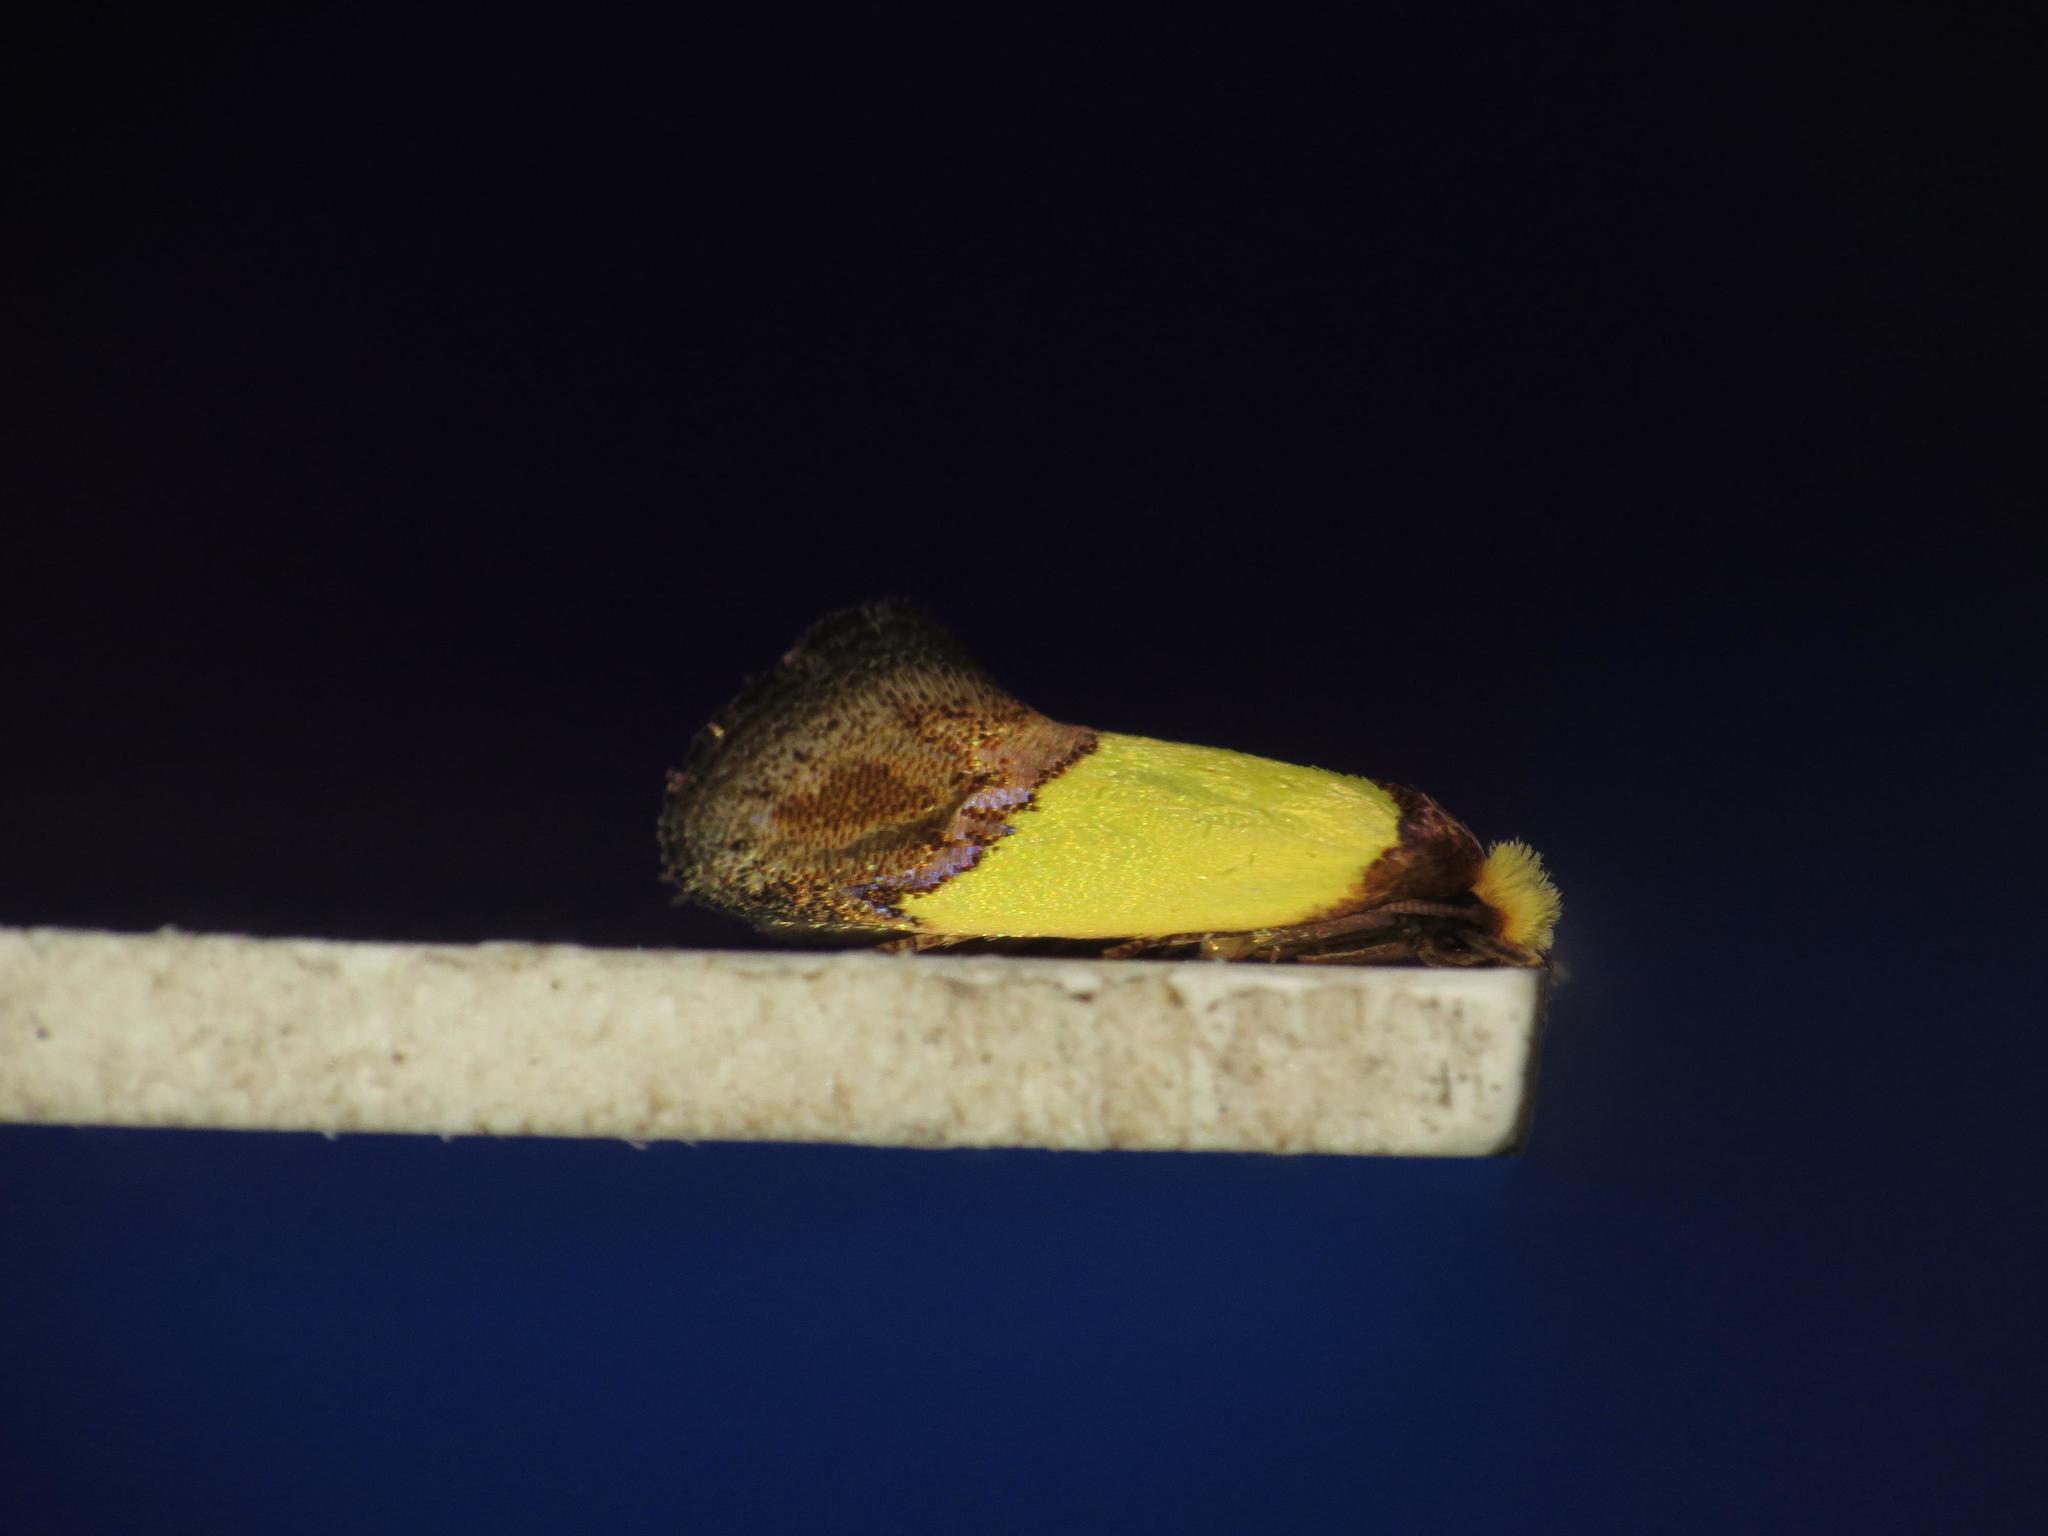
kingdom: Animalia
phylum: Arthropoda
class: Insecta
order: Lepidoptera
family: Tineidae
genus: Edosa
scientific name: Edosa xystidophora
